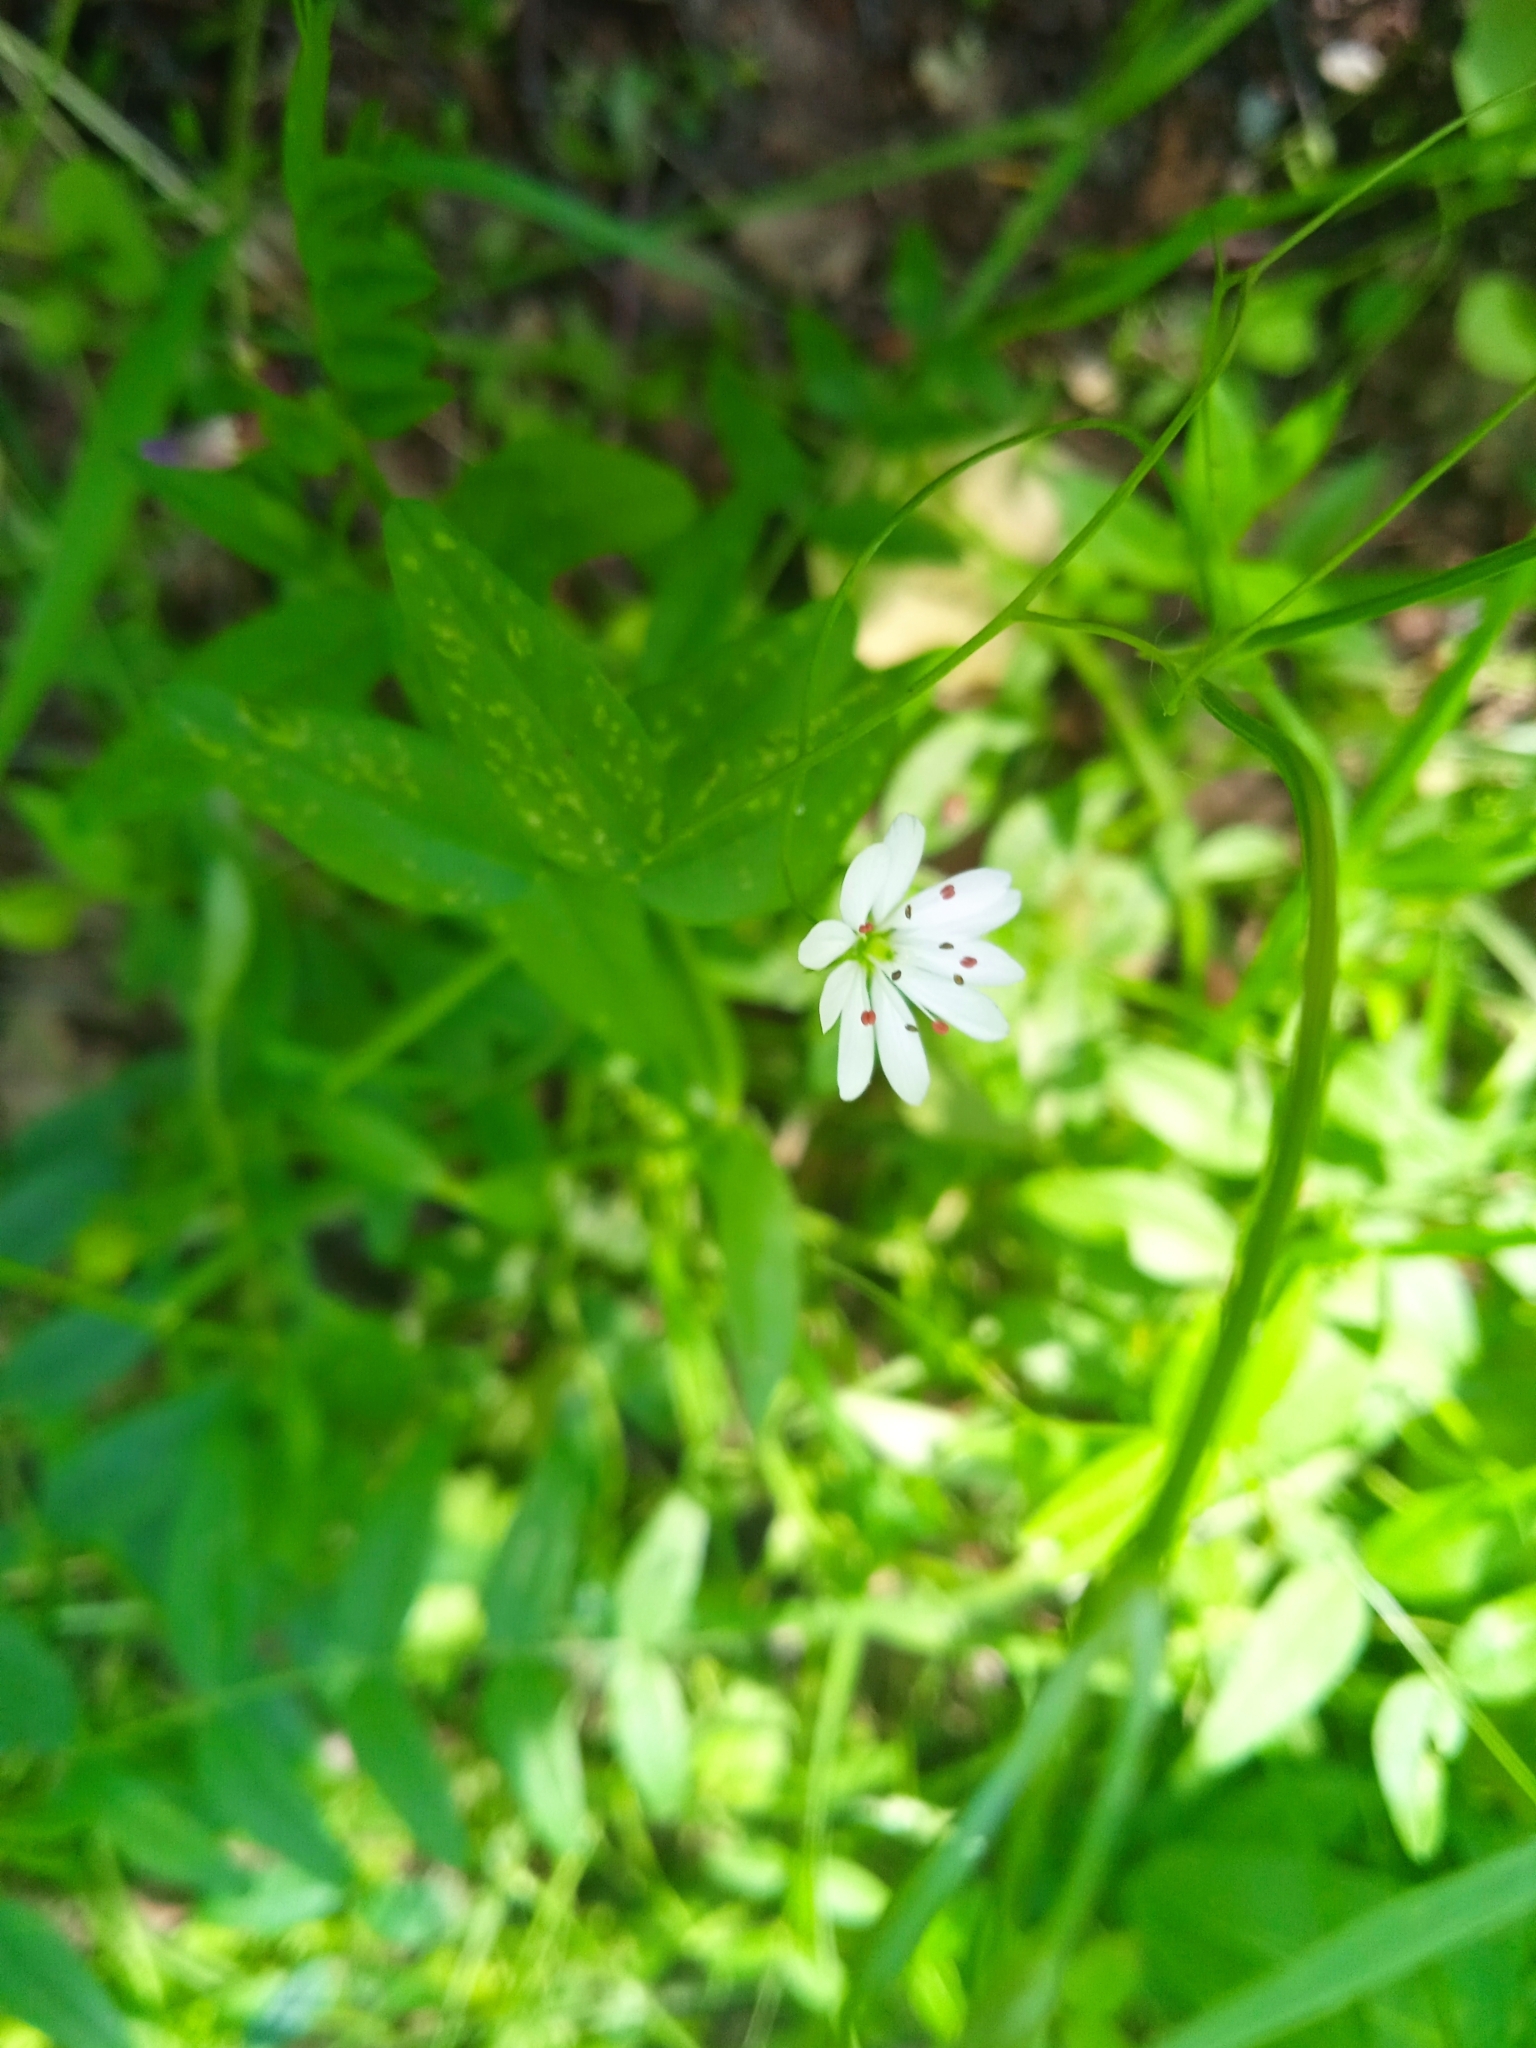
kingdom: Plantae
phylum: Tracheophyta
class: Magnoliopsida
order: Caryophyllales
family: Caryophyllaceae
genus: Stellaria
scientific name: Stellaria graminea
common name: Grass-like starwort
